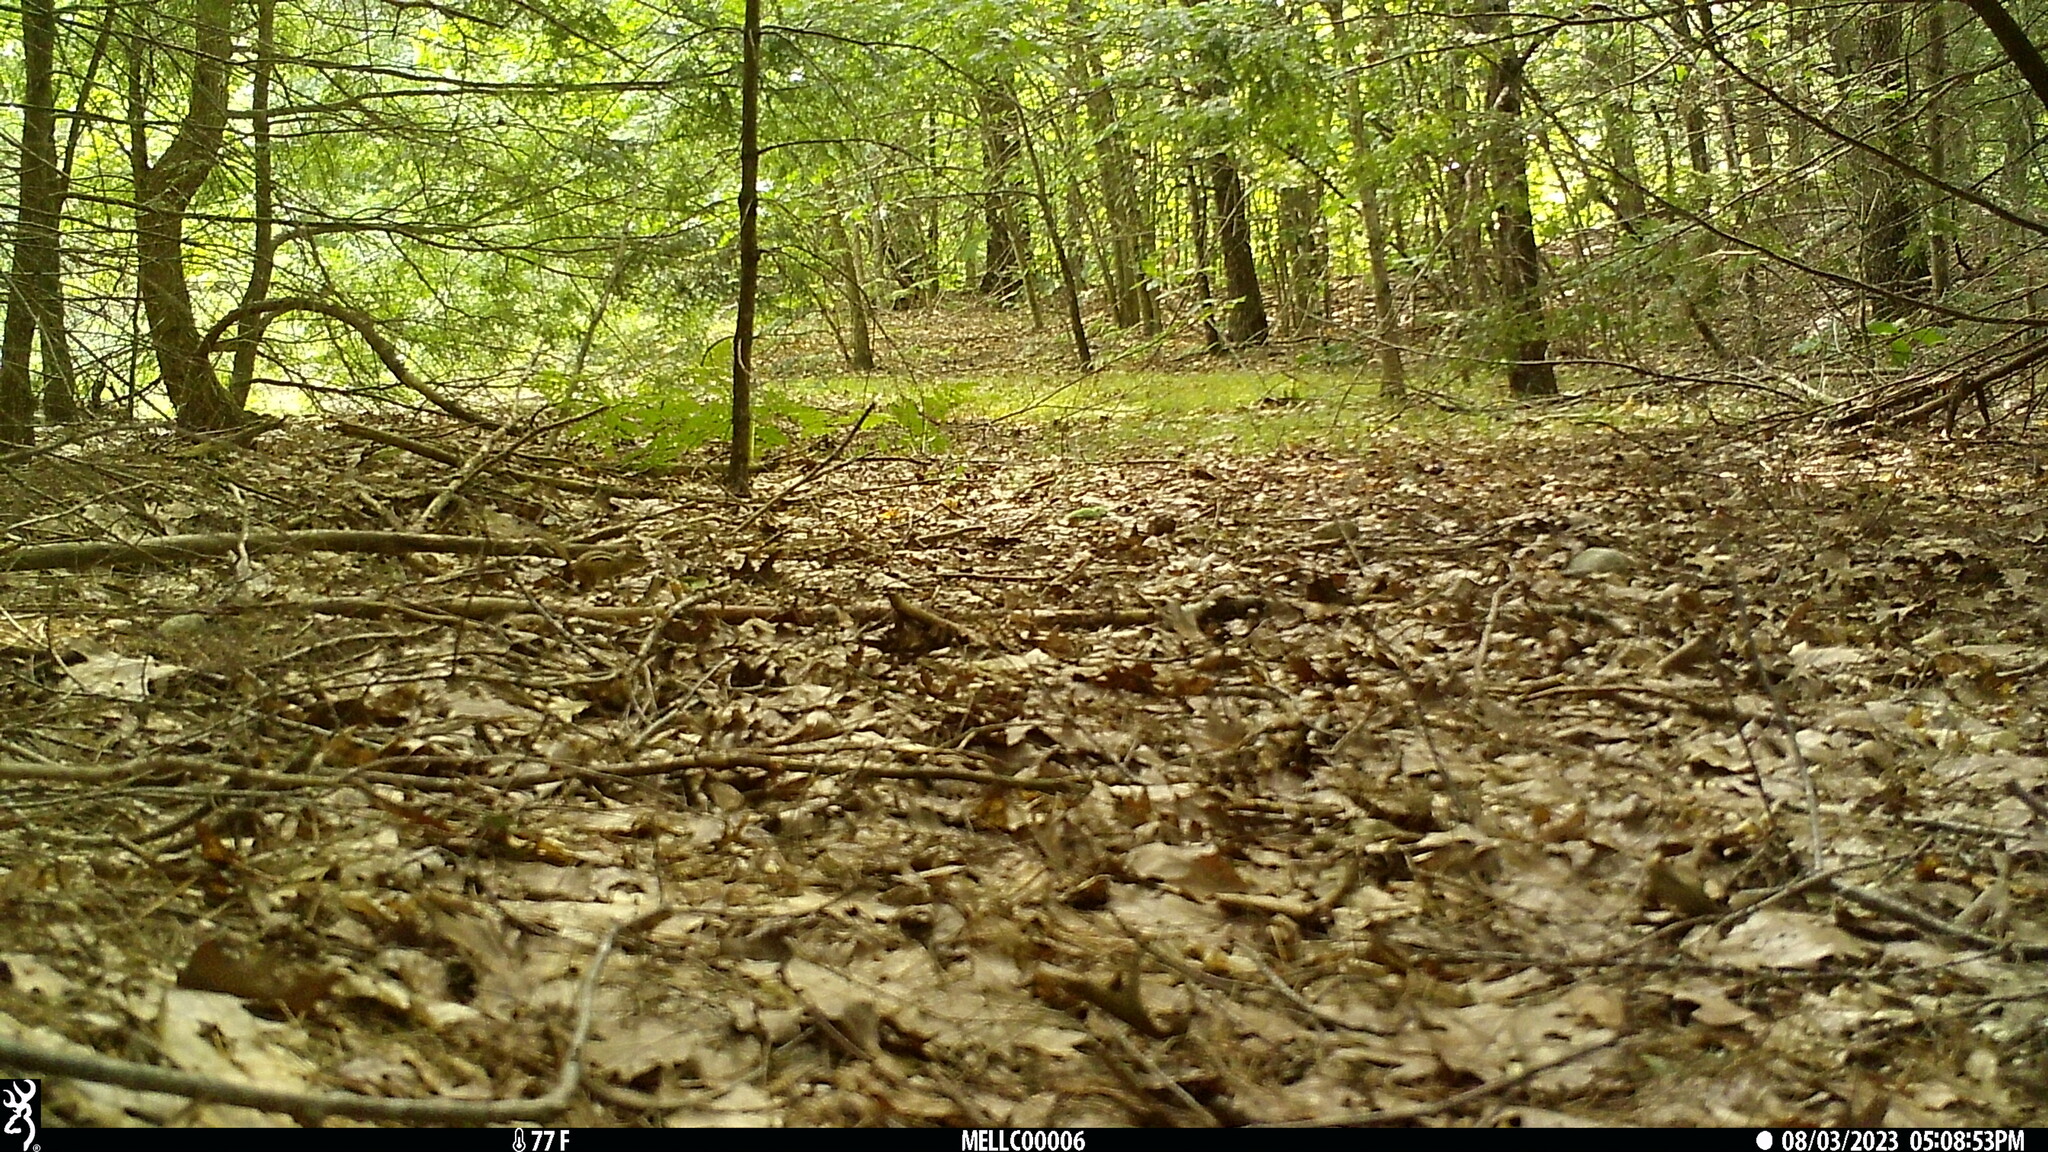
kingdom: Animalia
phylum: Chordata
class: Mammalia
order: Rodentia
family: Sciuridae
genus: Tamias
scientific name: Tamias striatus
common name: Eastern chipmunk
